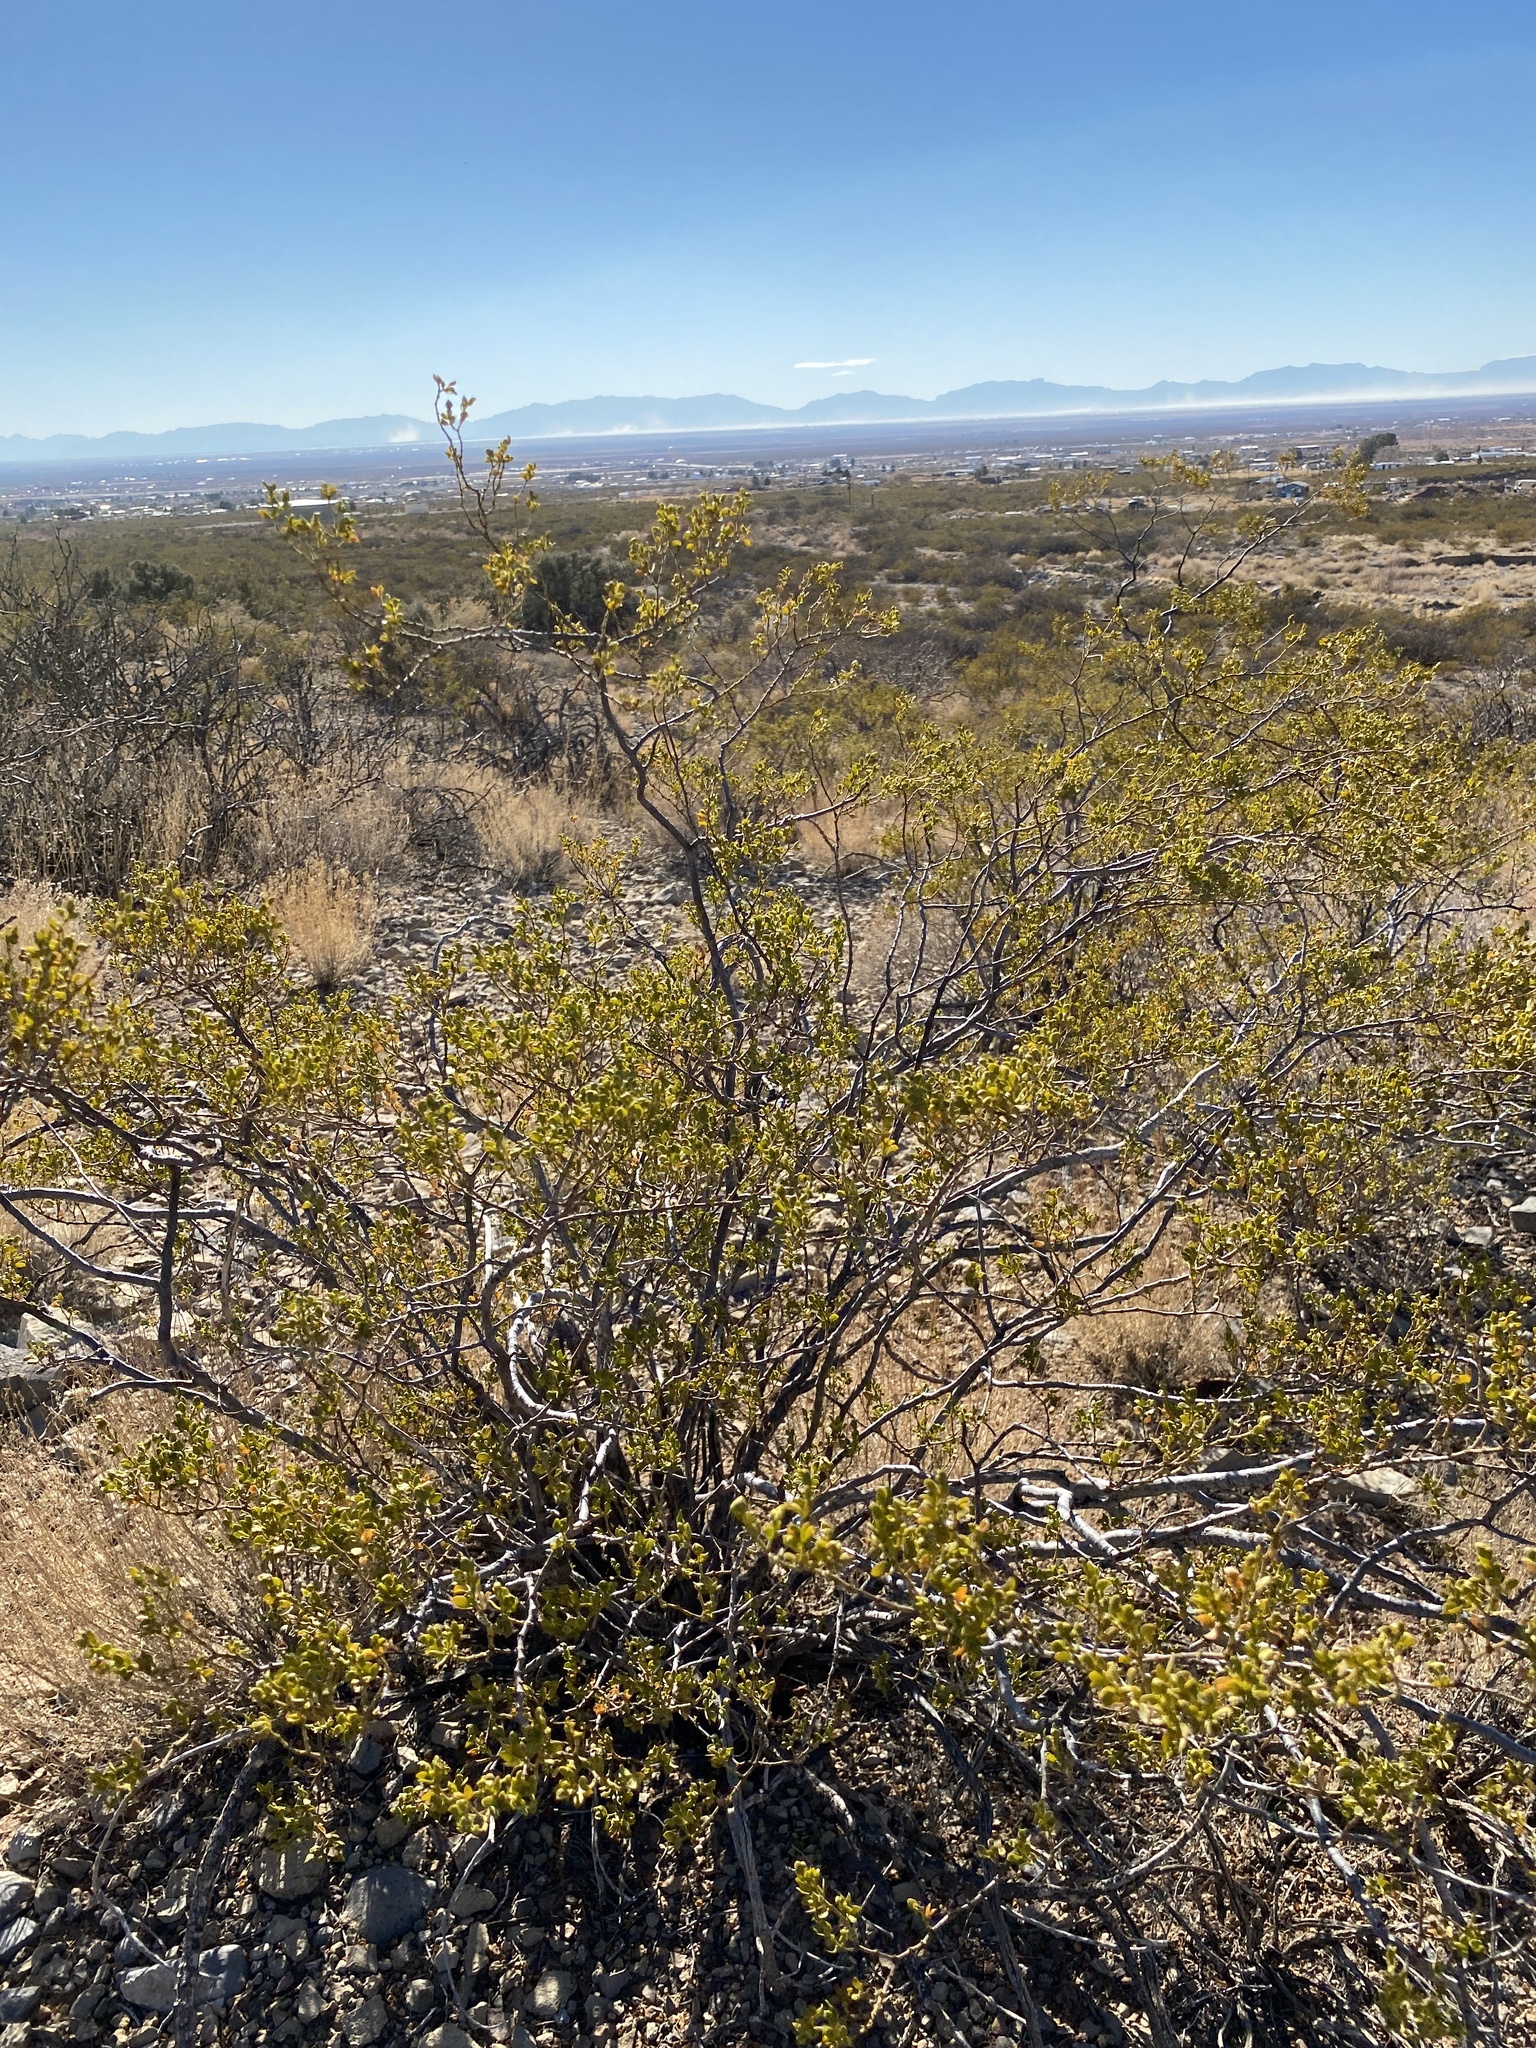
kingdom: Plantae
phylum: Tracheophyta
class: Magnoliopsida
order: Zygophyllales
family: Zygophyllaceae
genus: Larrea
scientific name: Larrea tridentata
